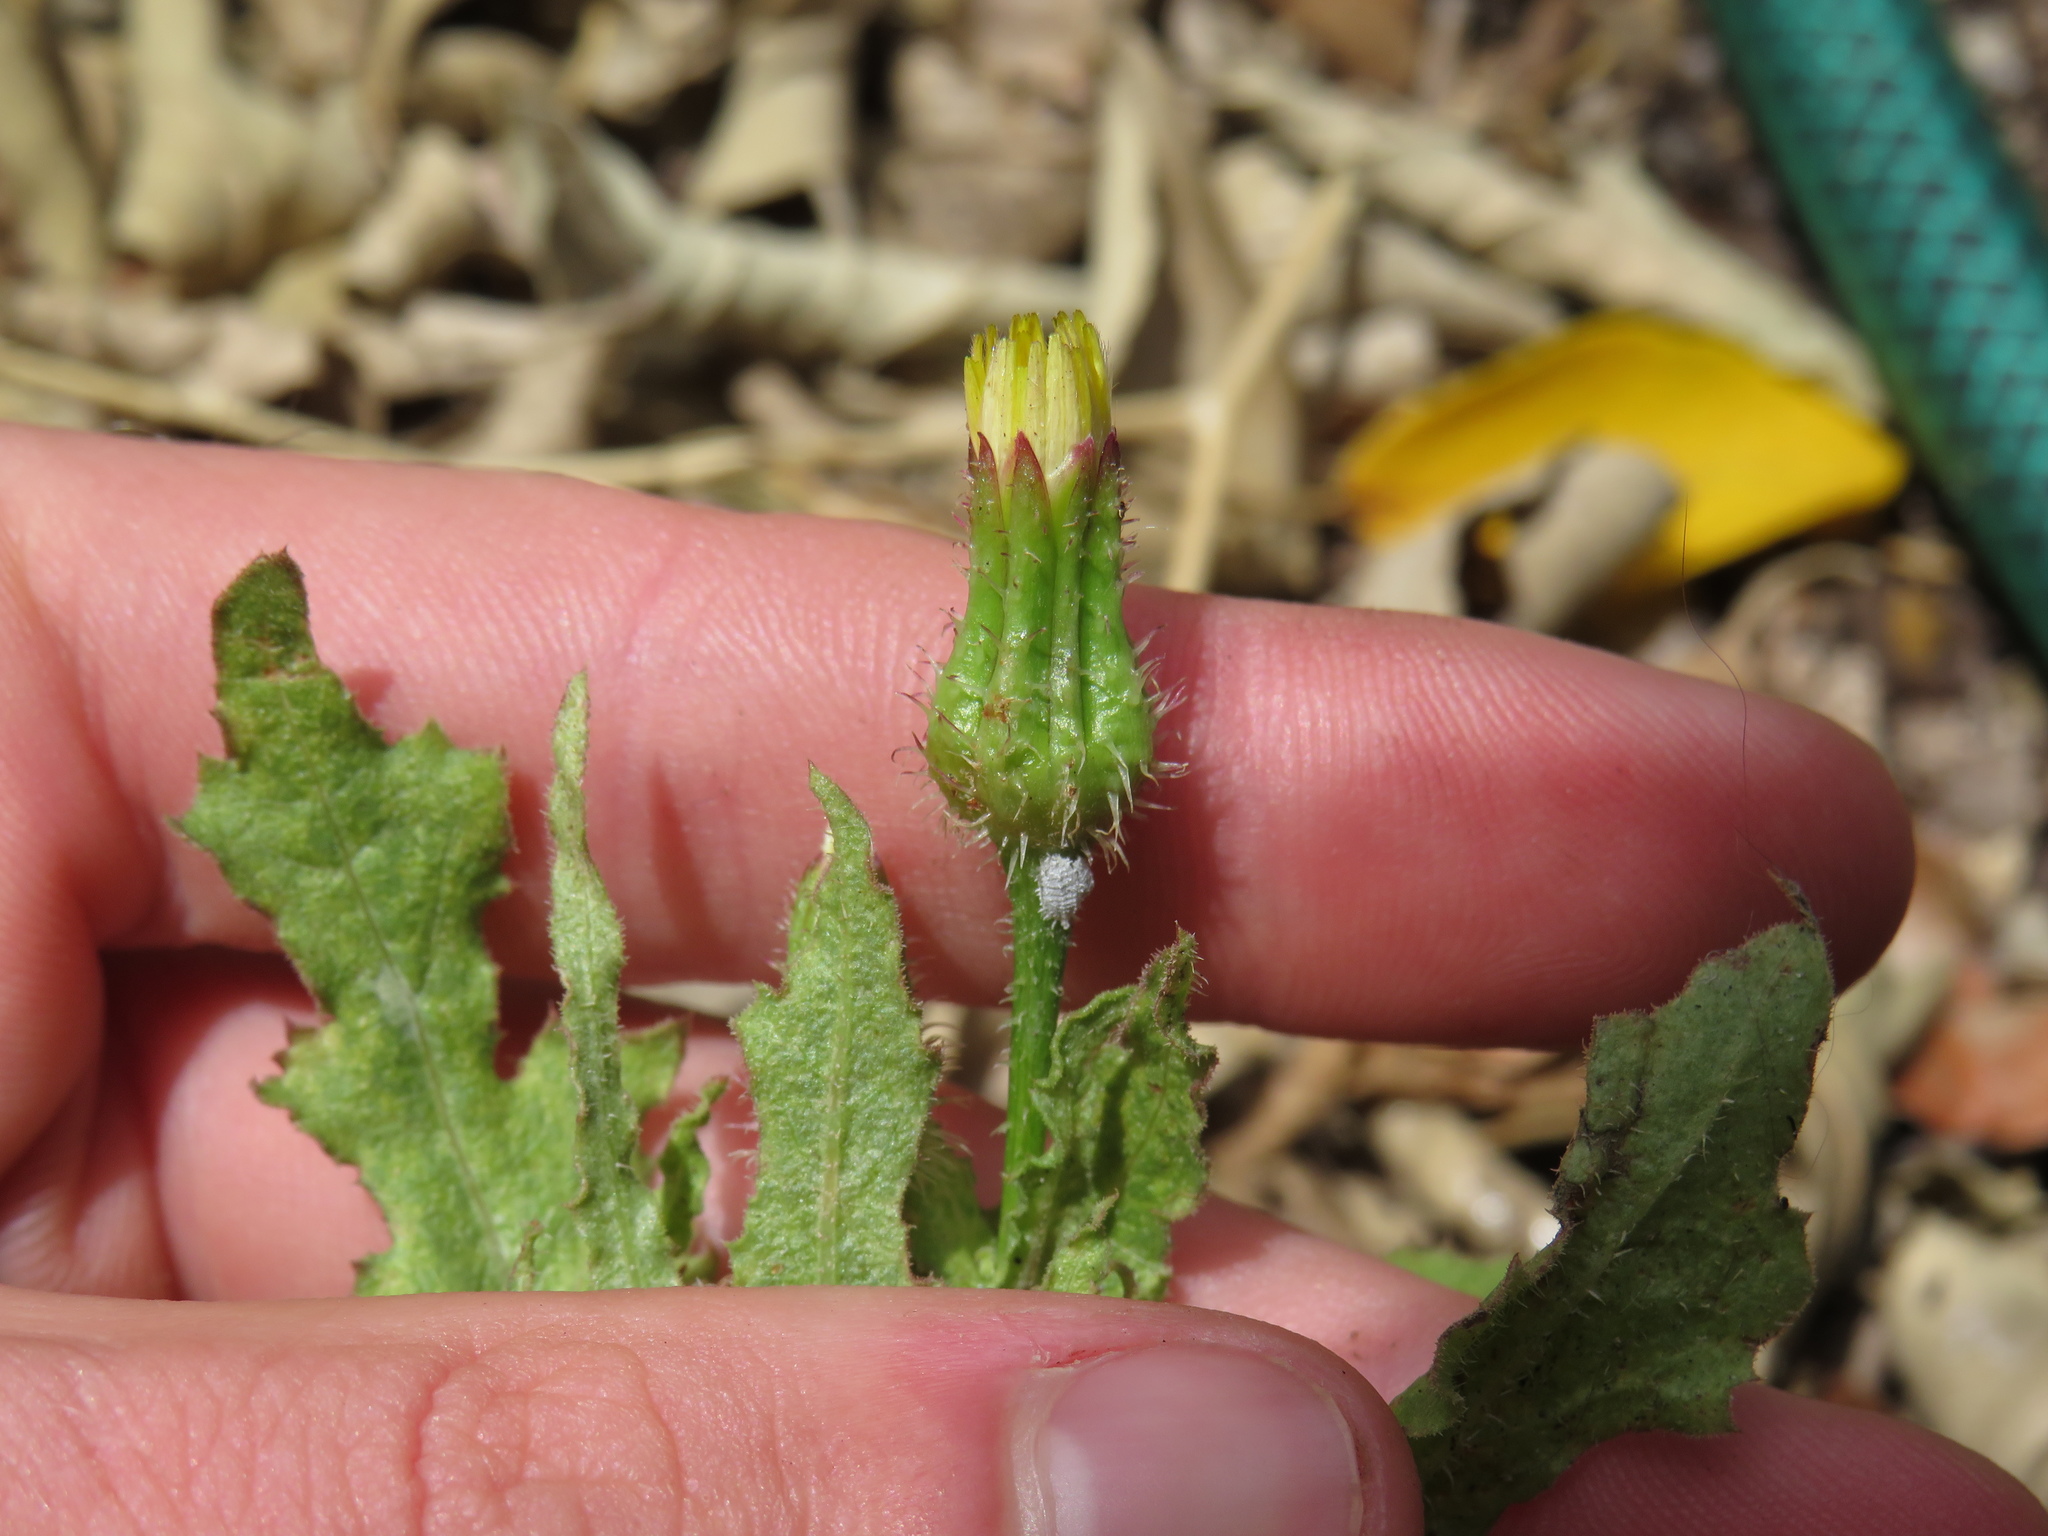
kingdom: Plantae
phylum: Tracheophyta
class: Magnoliopsida
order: Asterales
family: Asteraceae
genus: Urospermum
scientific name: Urospermum picroides
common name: False hawkbit
